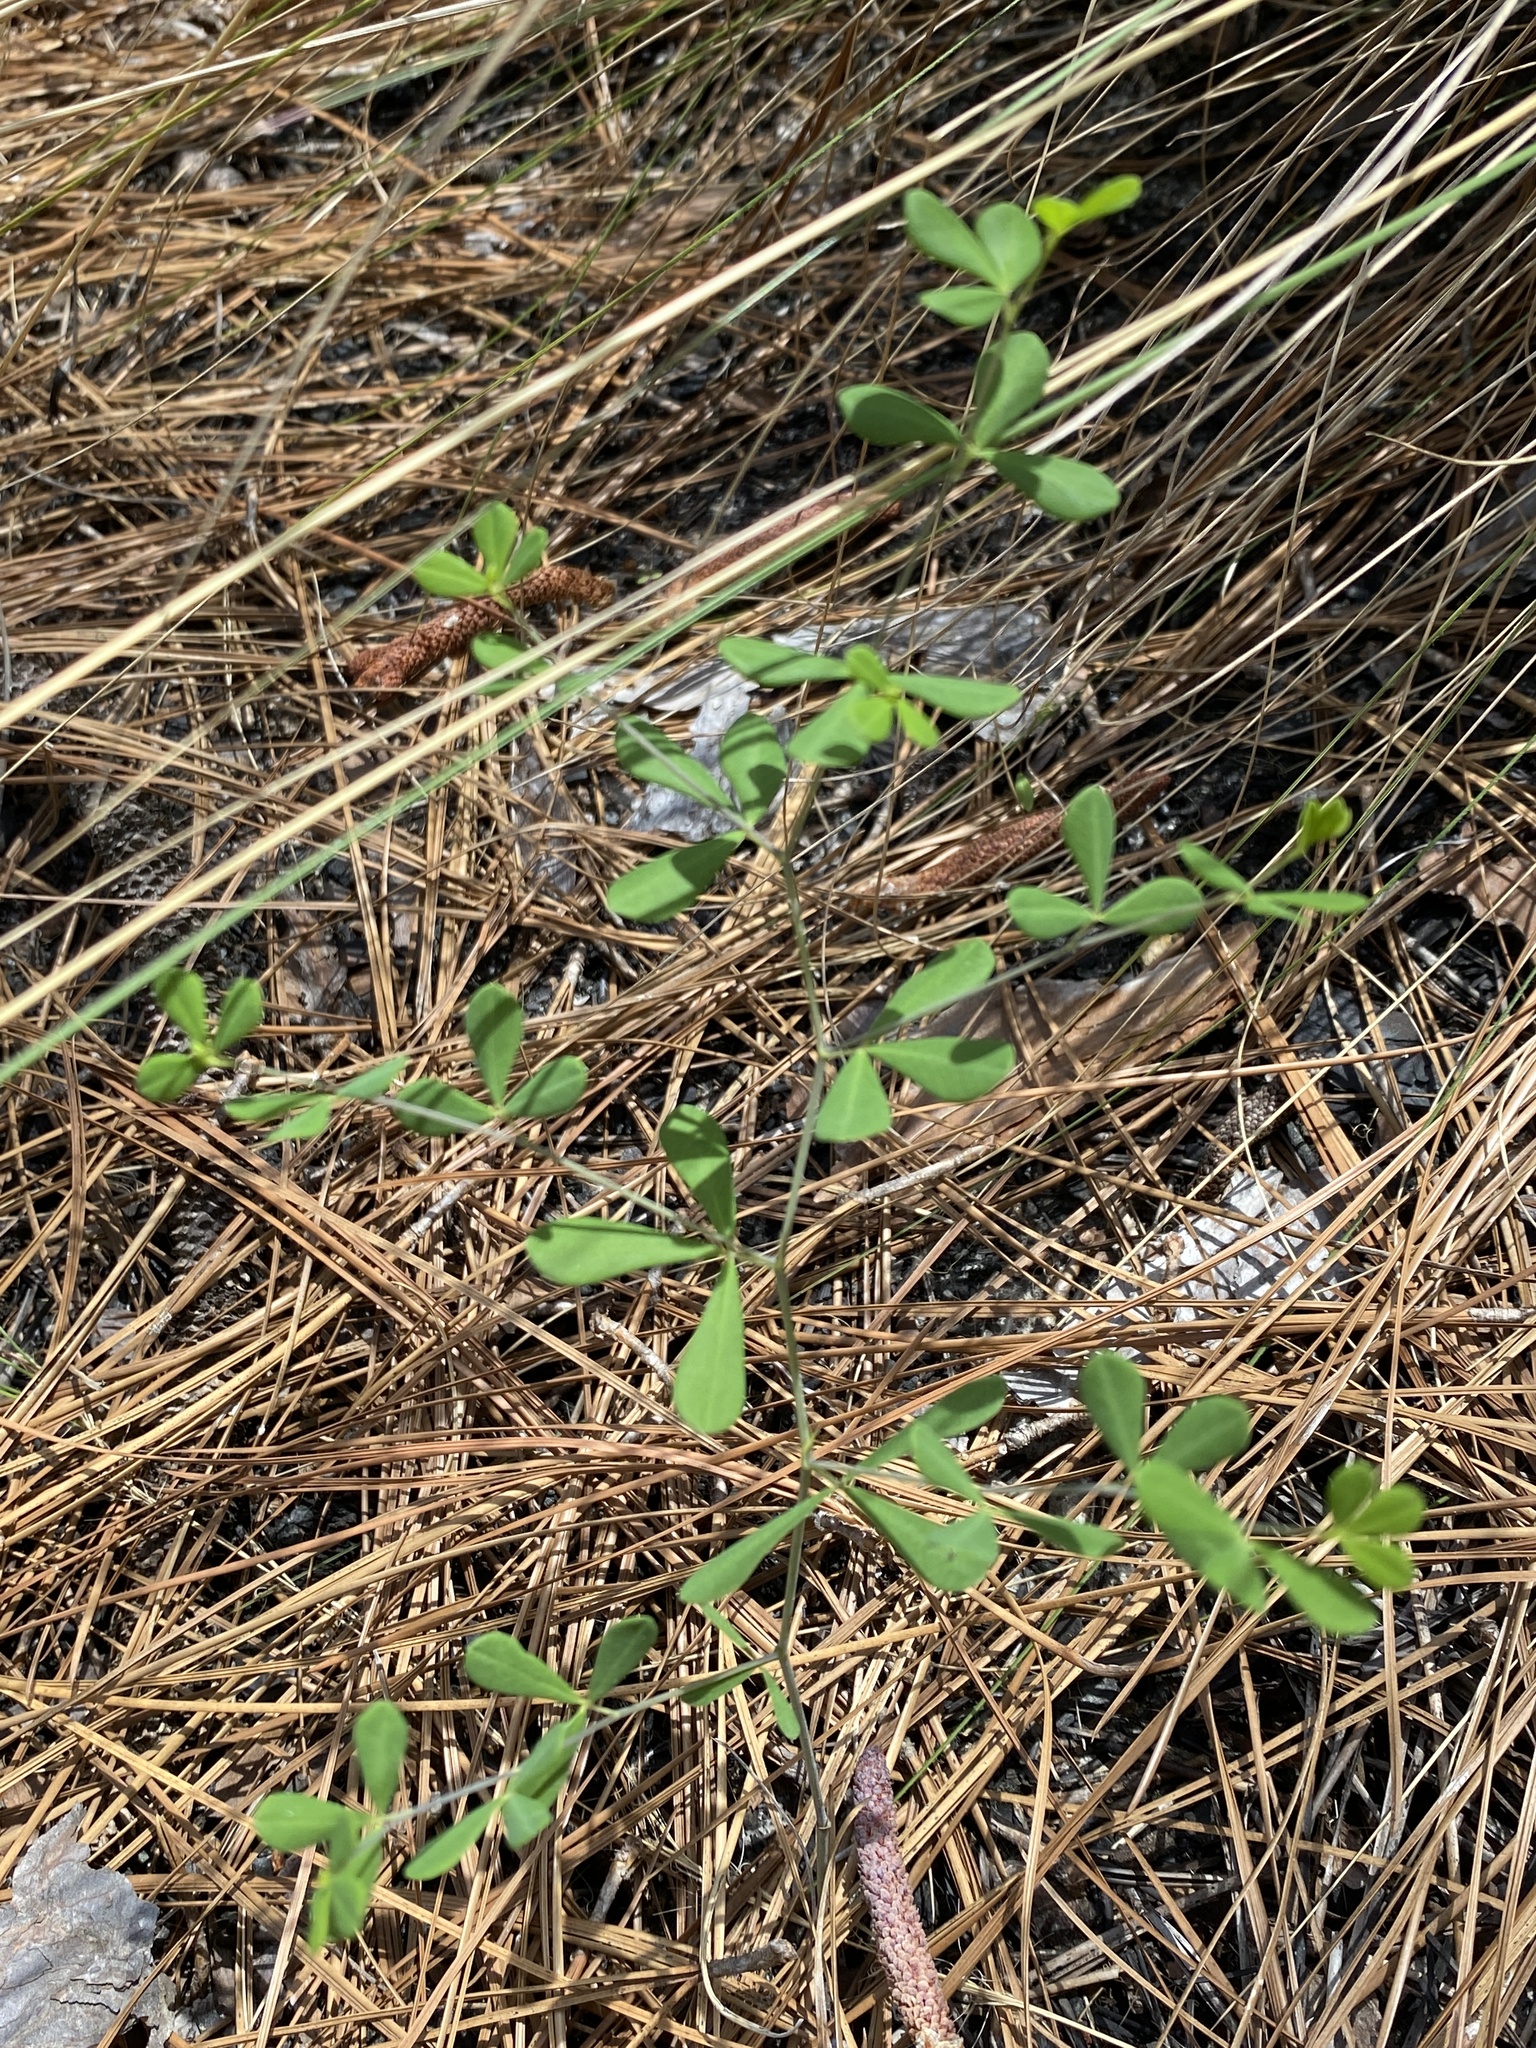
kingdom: Plantae
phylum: Tracheophyta
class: Magnoliopsida
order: Fabales
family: Fabaceae
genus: Baptisia
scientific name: Baptisia tinctoria
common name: Wild indigo
